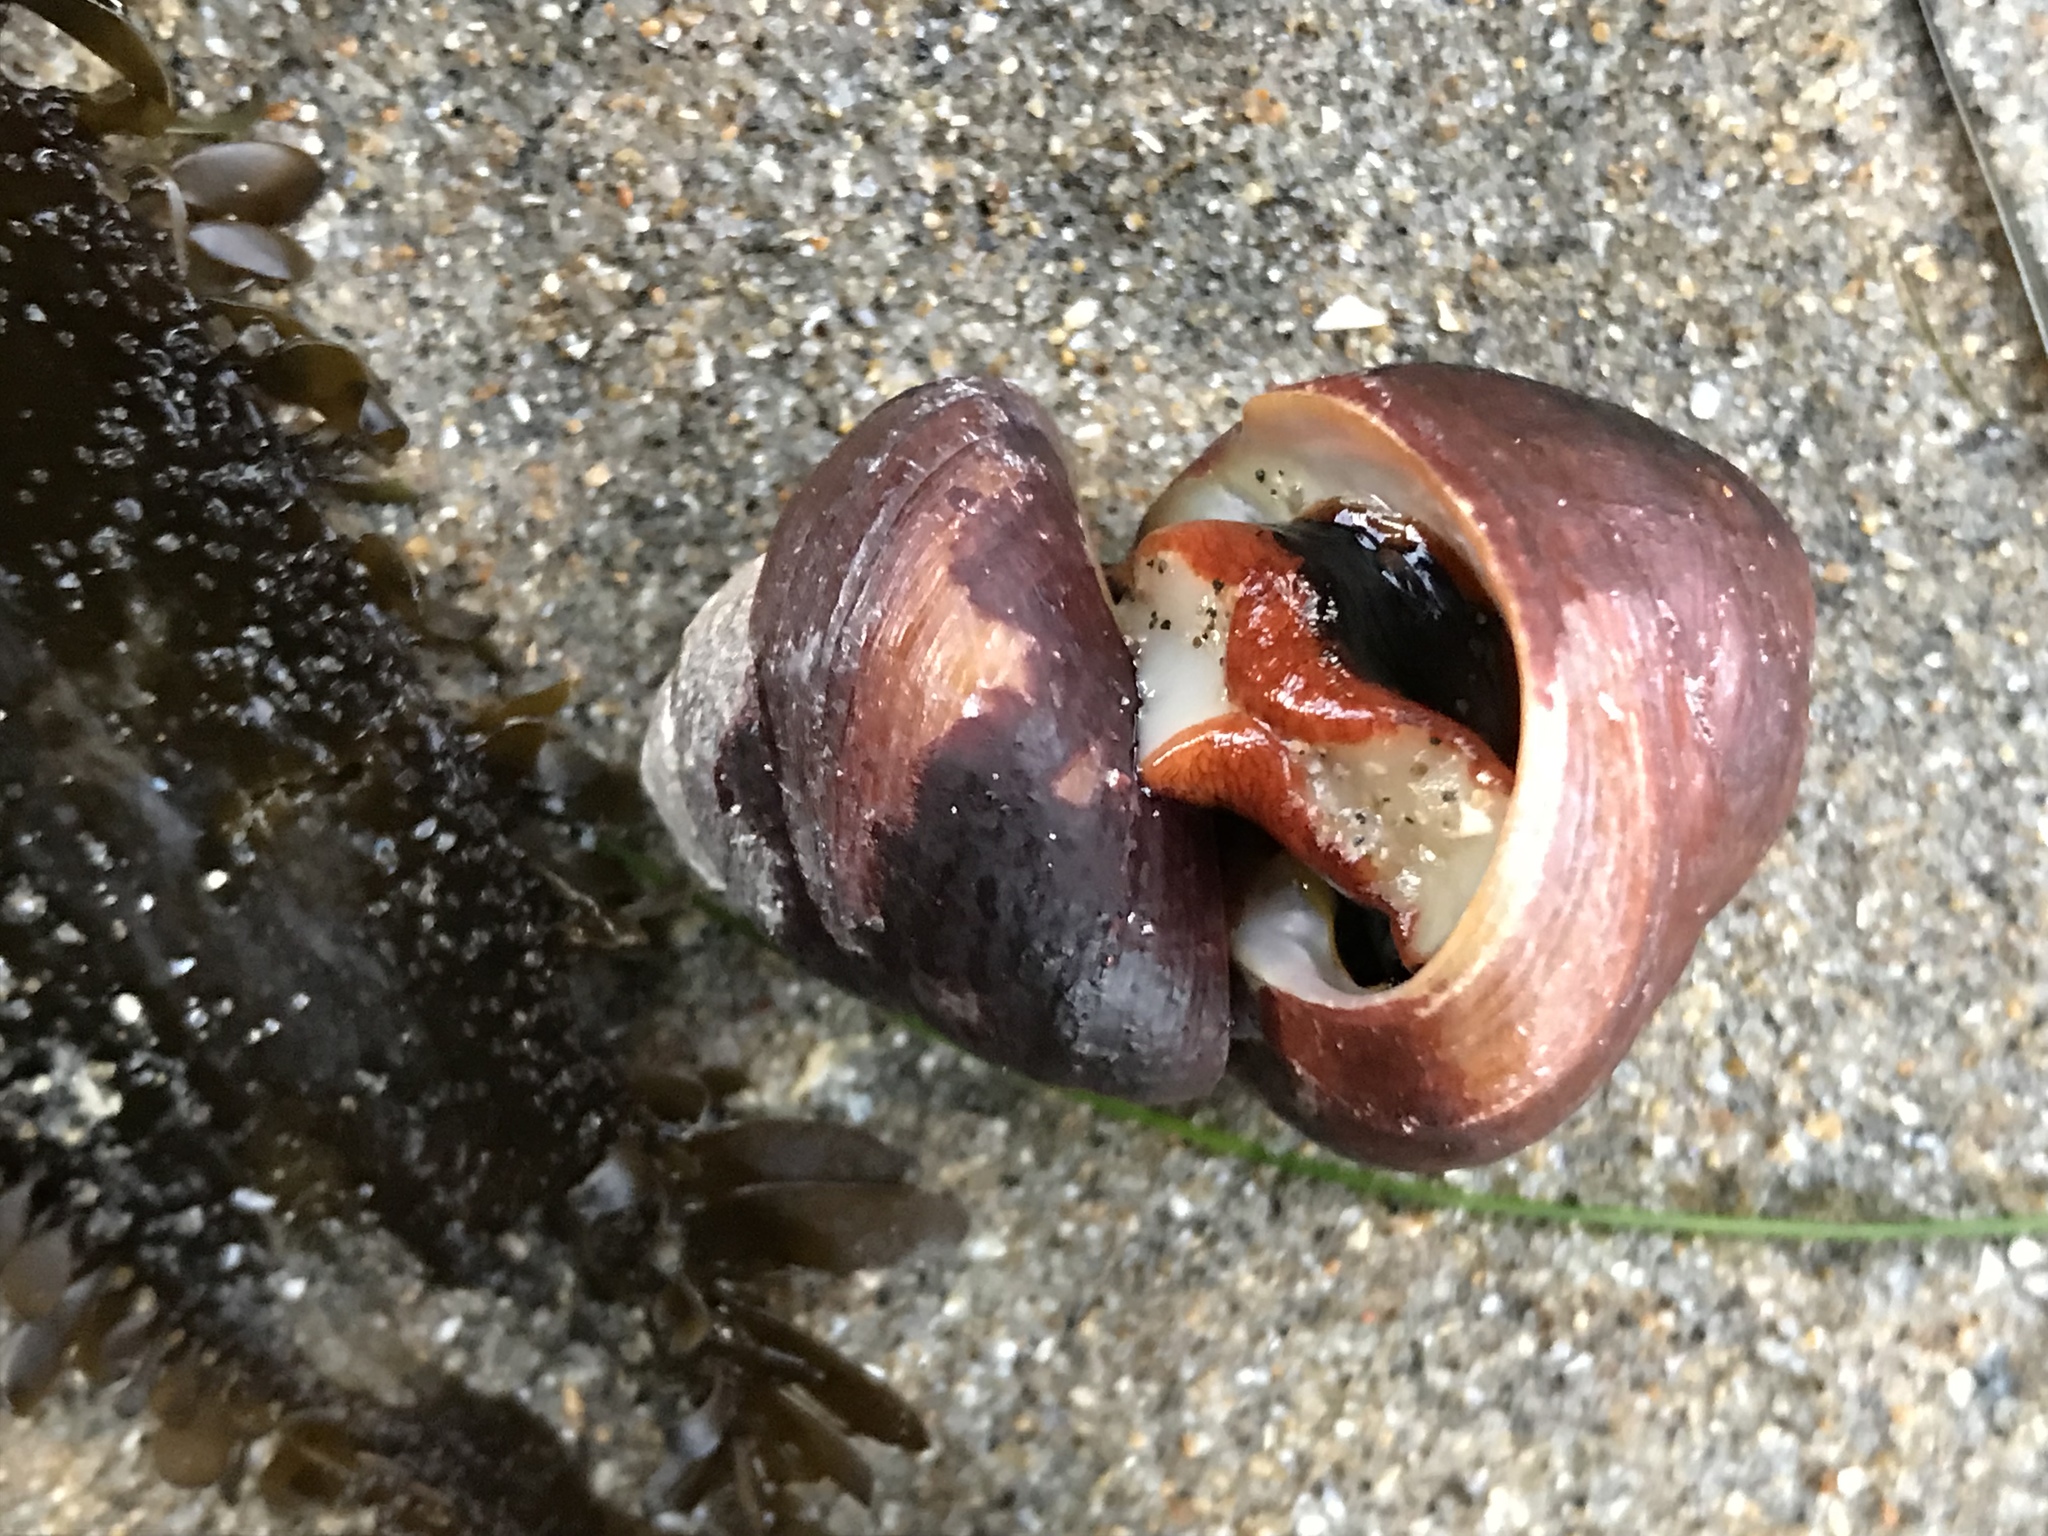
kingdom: Animalia
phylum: Mollusca
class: Gastropoda
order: Trochida
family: Tegulidae
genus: Tegula
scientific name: Tegula brunnea
